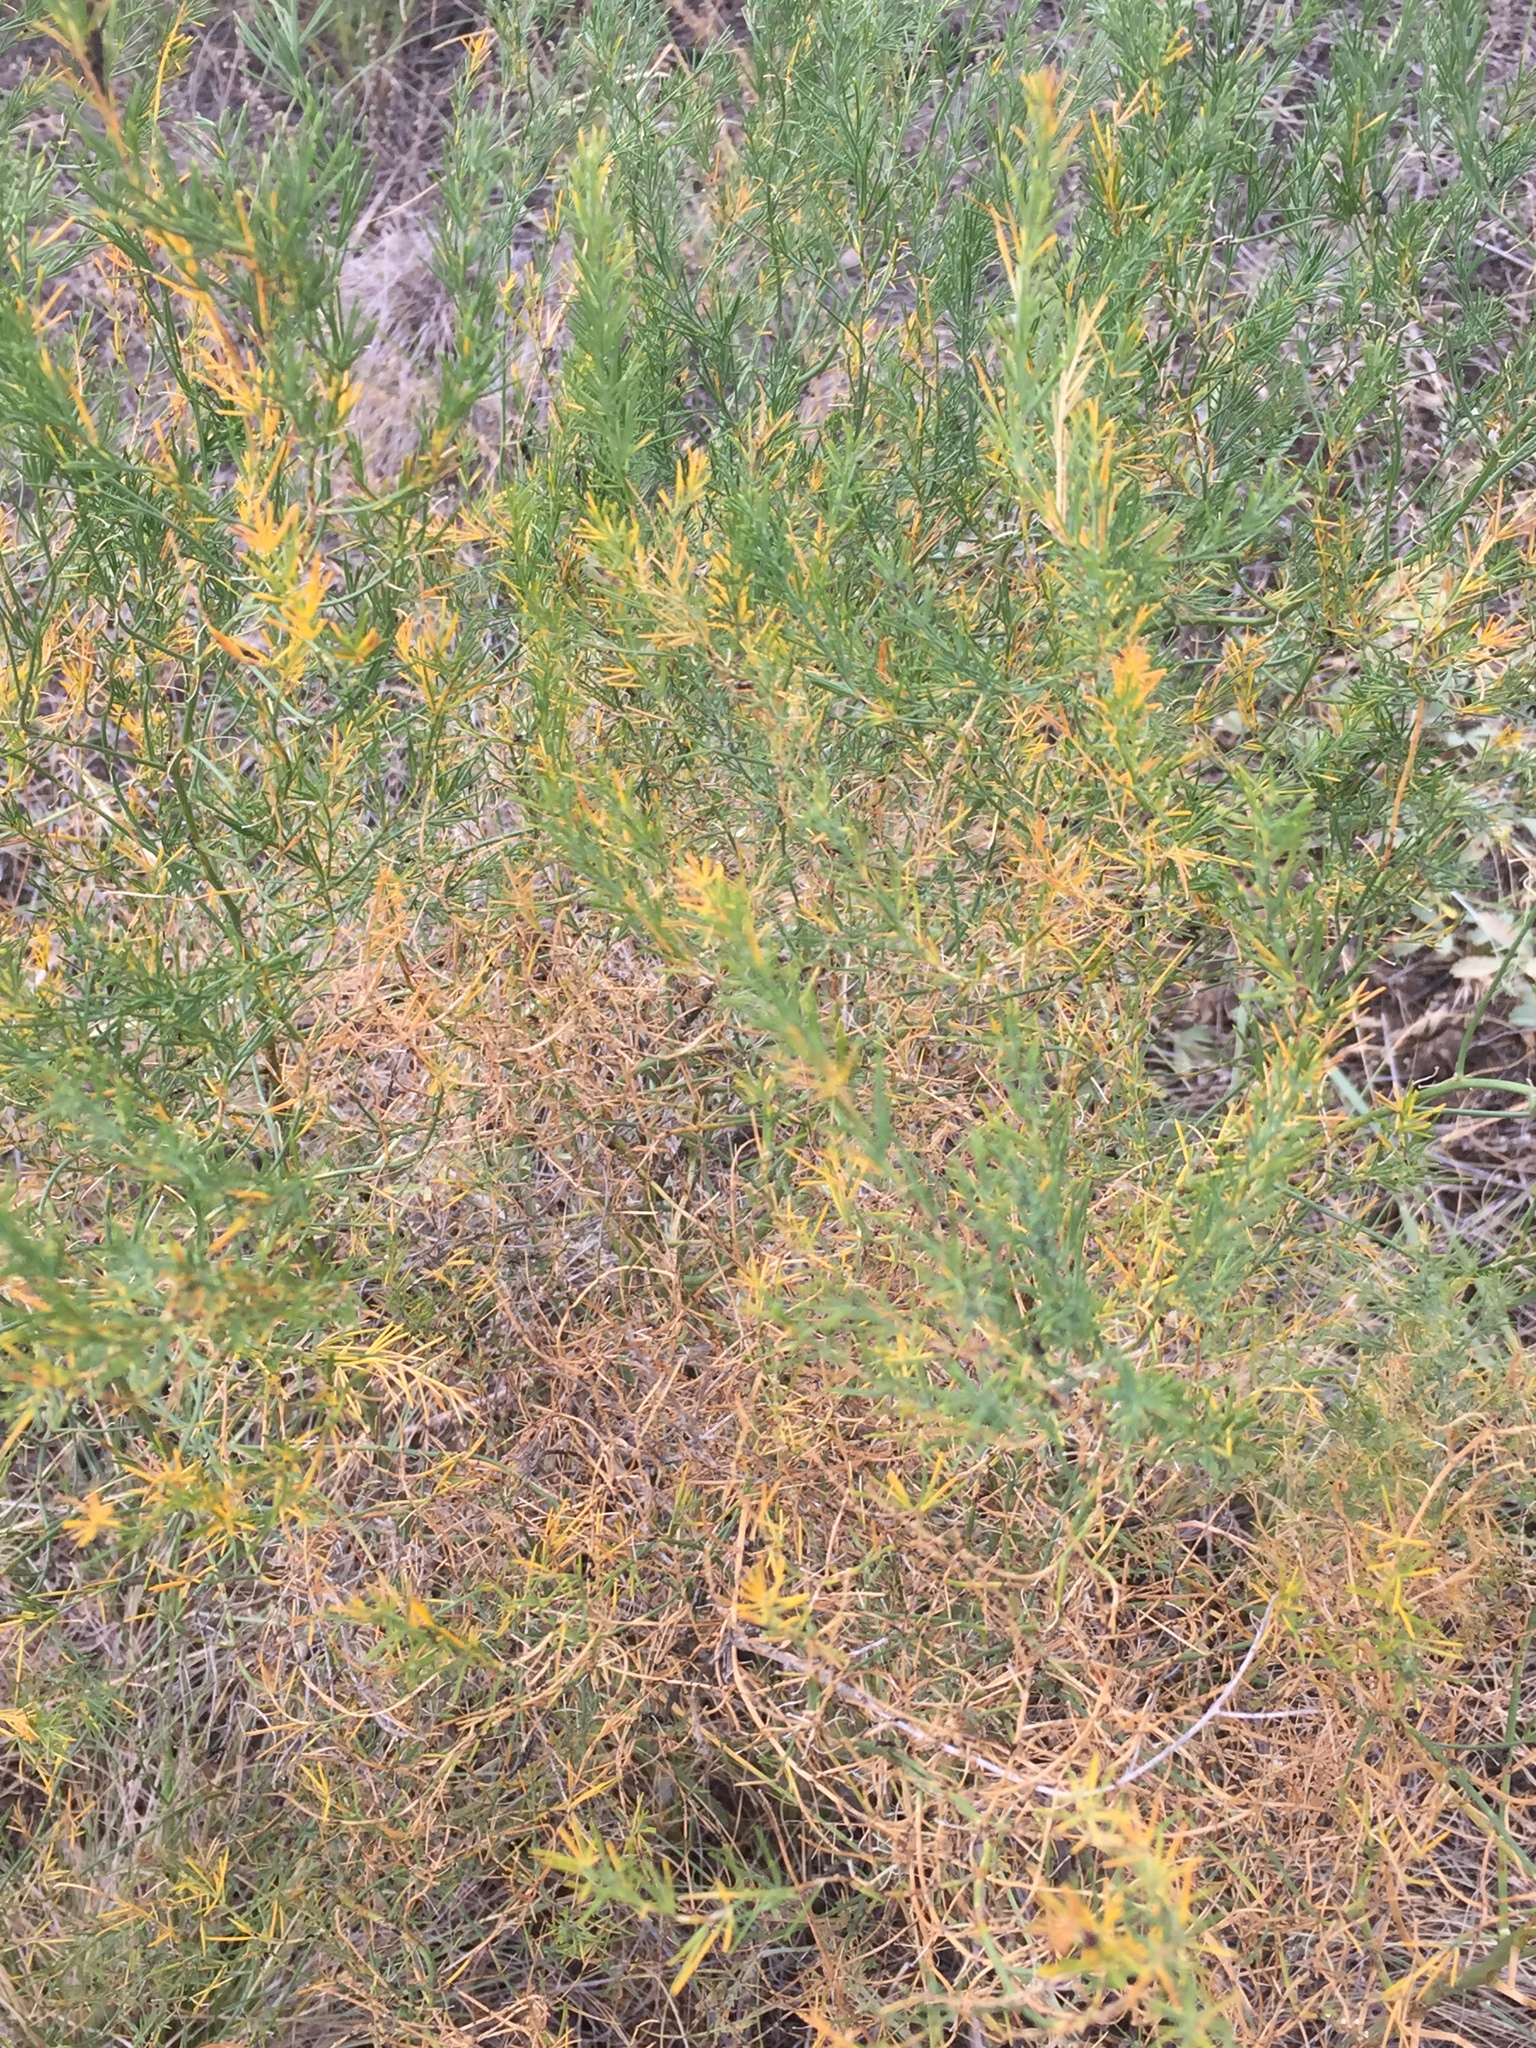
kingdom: Plantae
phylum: Tracheophyta
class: Liliopsida
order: Asparagales
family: Asparagaceae
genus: Asparagus
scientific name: Asparagus officinalis
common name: Garden asparagus
